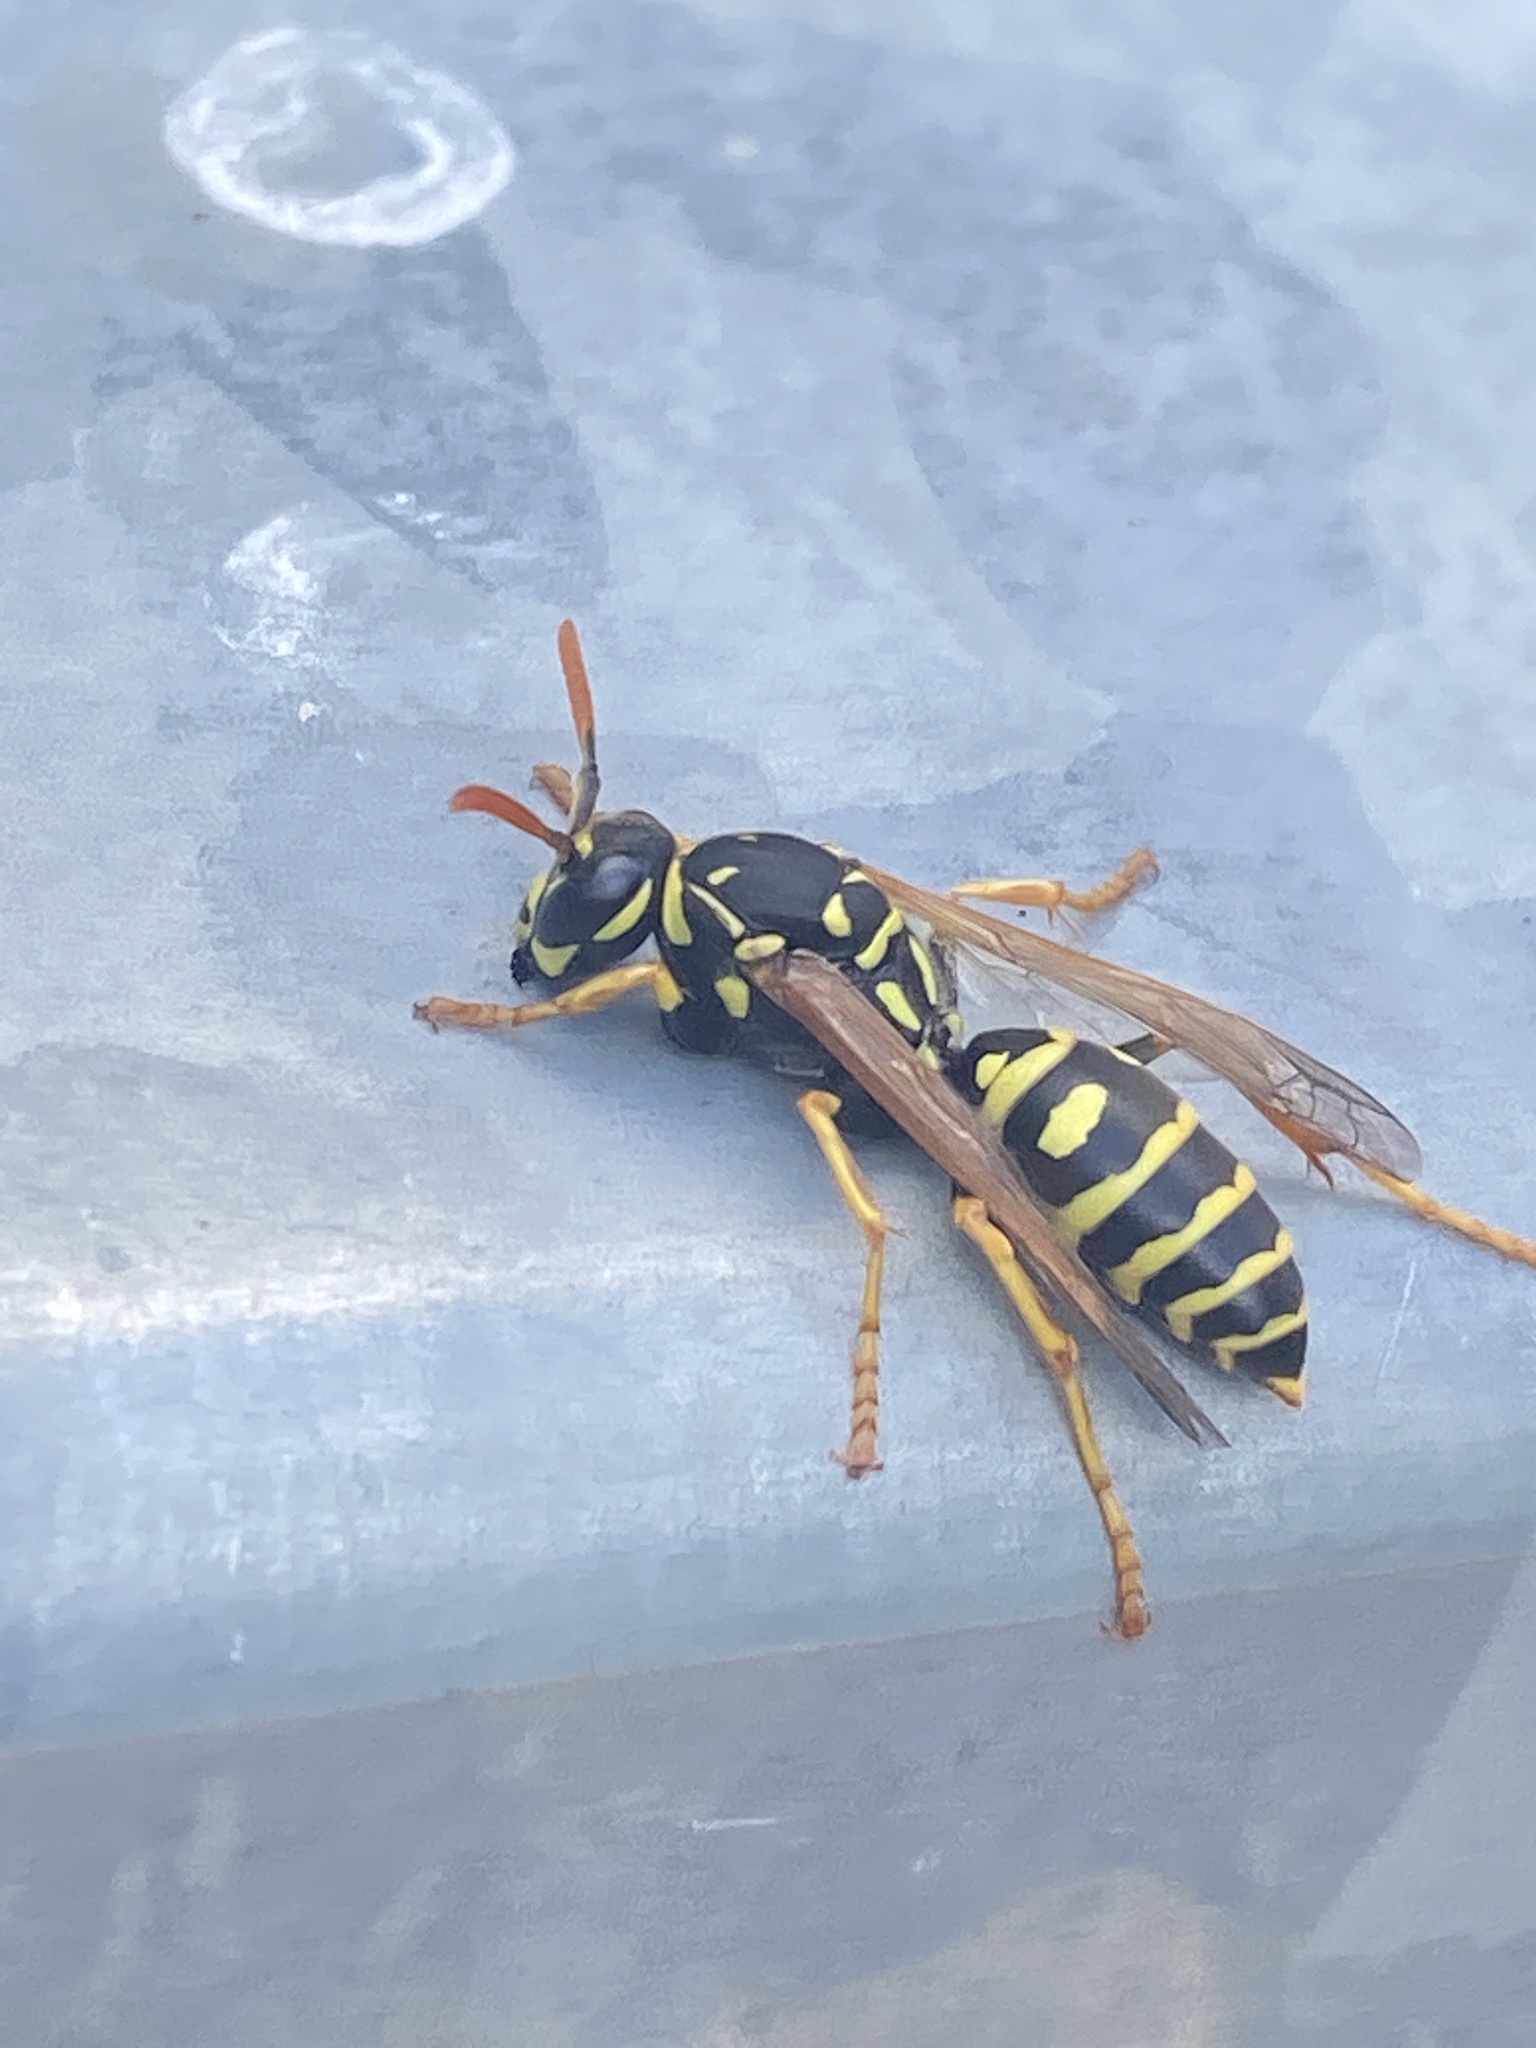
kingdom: Animalia
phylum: Arthropoda
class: Insecta
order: Hymenoptera
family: Eumenidae
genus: Polistes
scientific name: Polistes dominula
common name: Paper wasp
